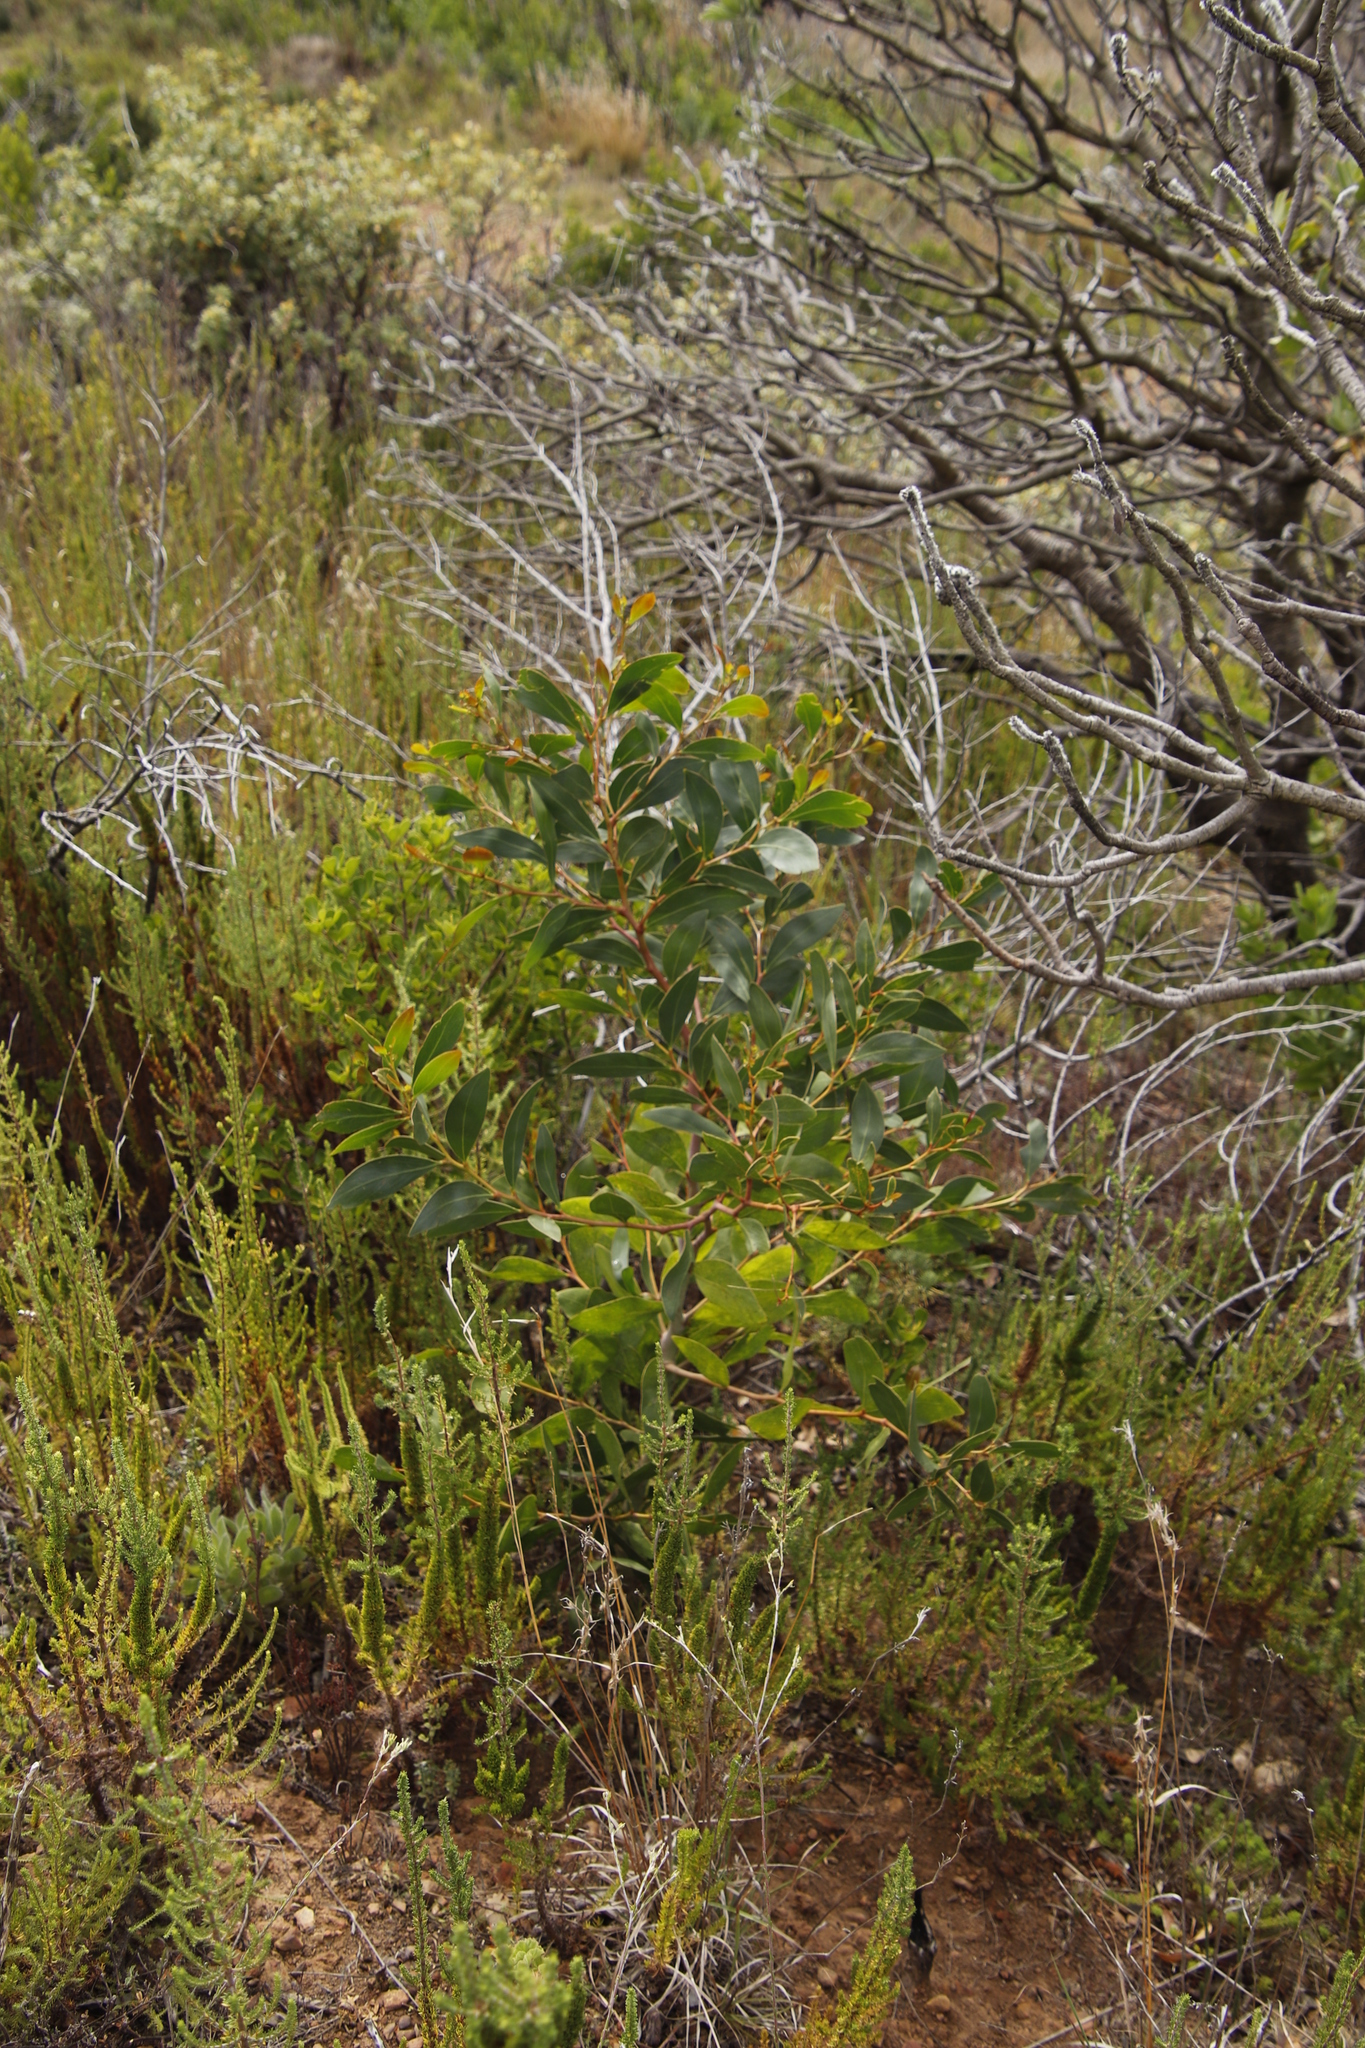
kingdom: Plantae
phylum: Tracheophyta
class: Magnoliopsida
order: Fabales
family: Fabaceae
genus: Acacia
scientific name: Acacia pycnantha
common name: Golden wattle
